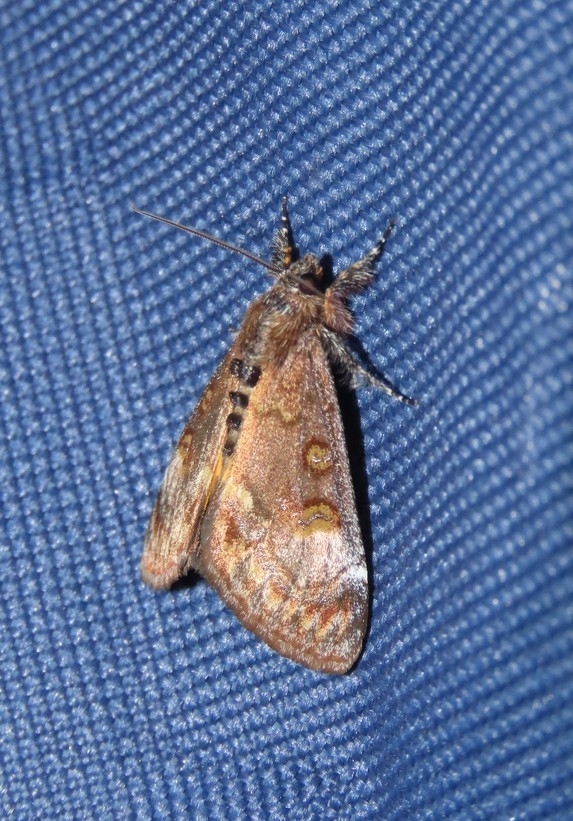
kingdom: Animalia
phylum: Arthropoda
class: Insecta
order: Lepidoptera
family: Noctuidae
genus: Gerra
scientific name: Gerra sevorsa
